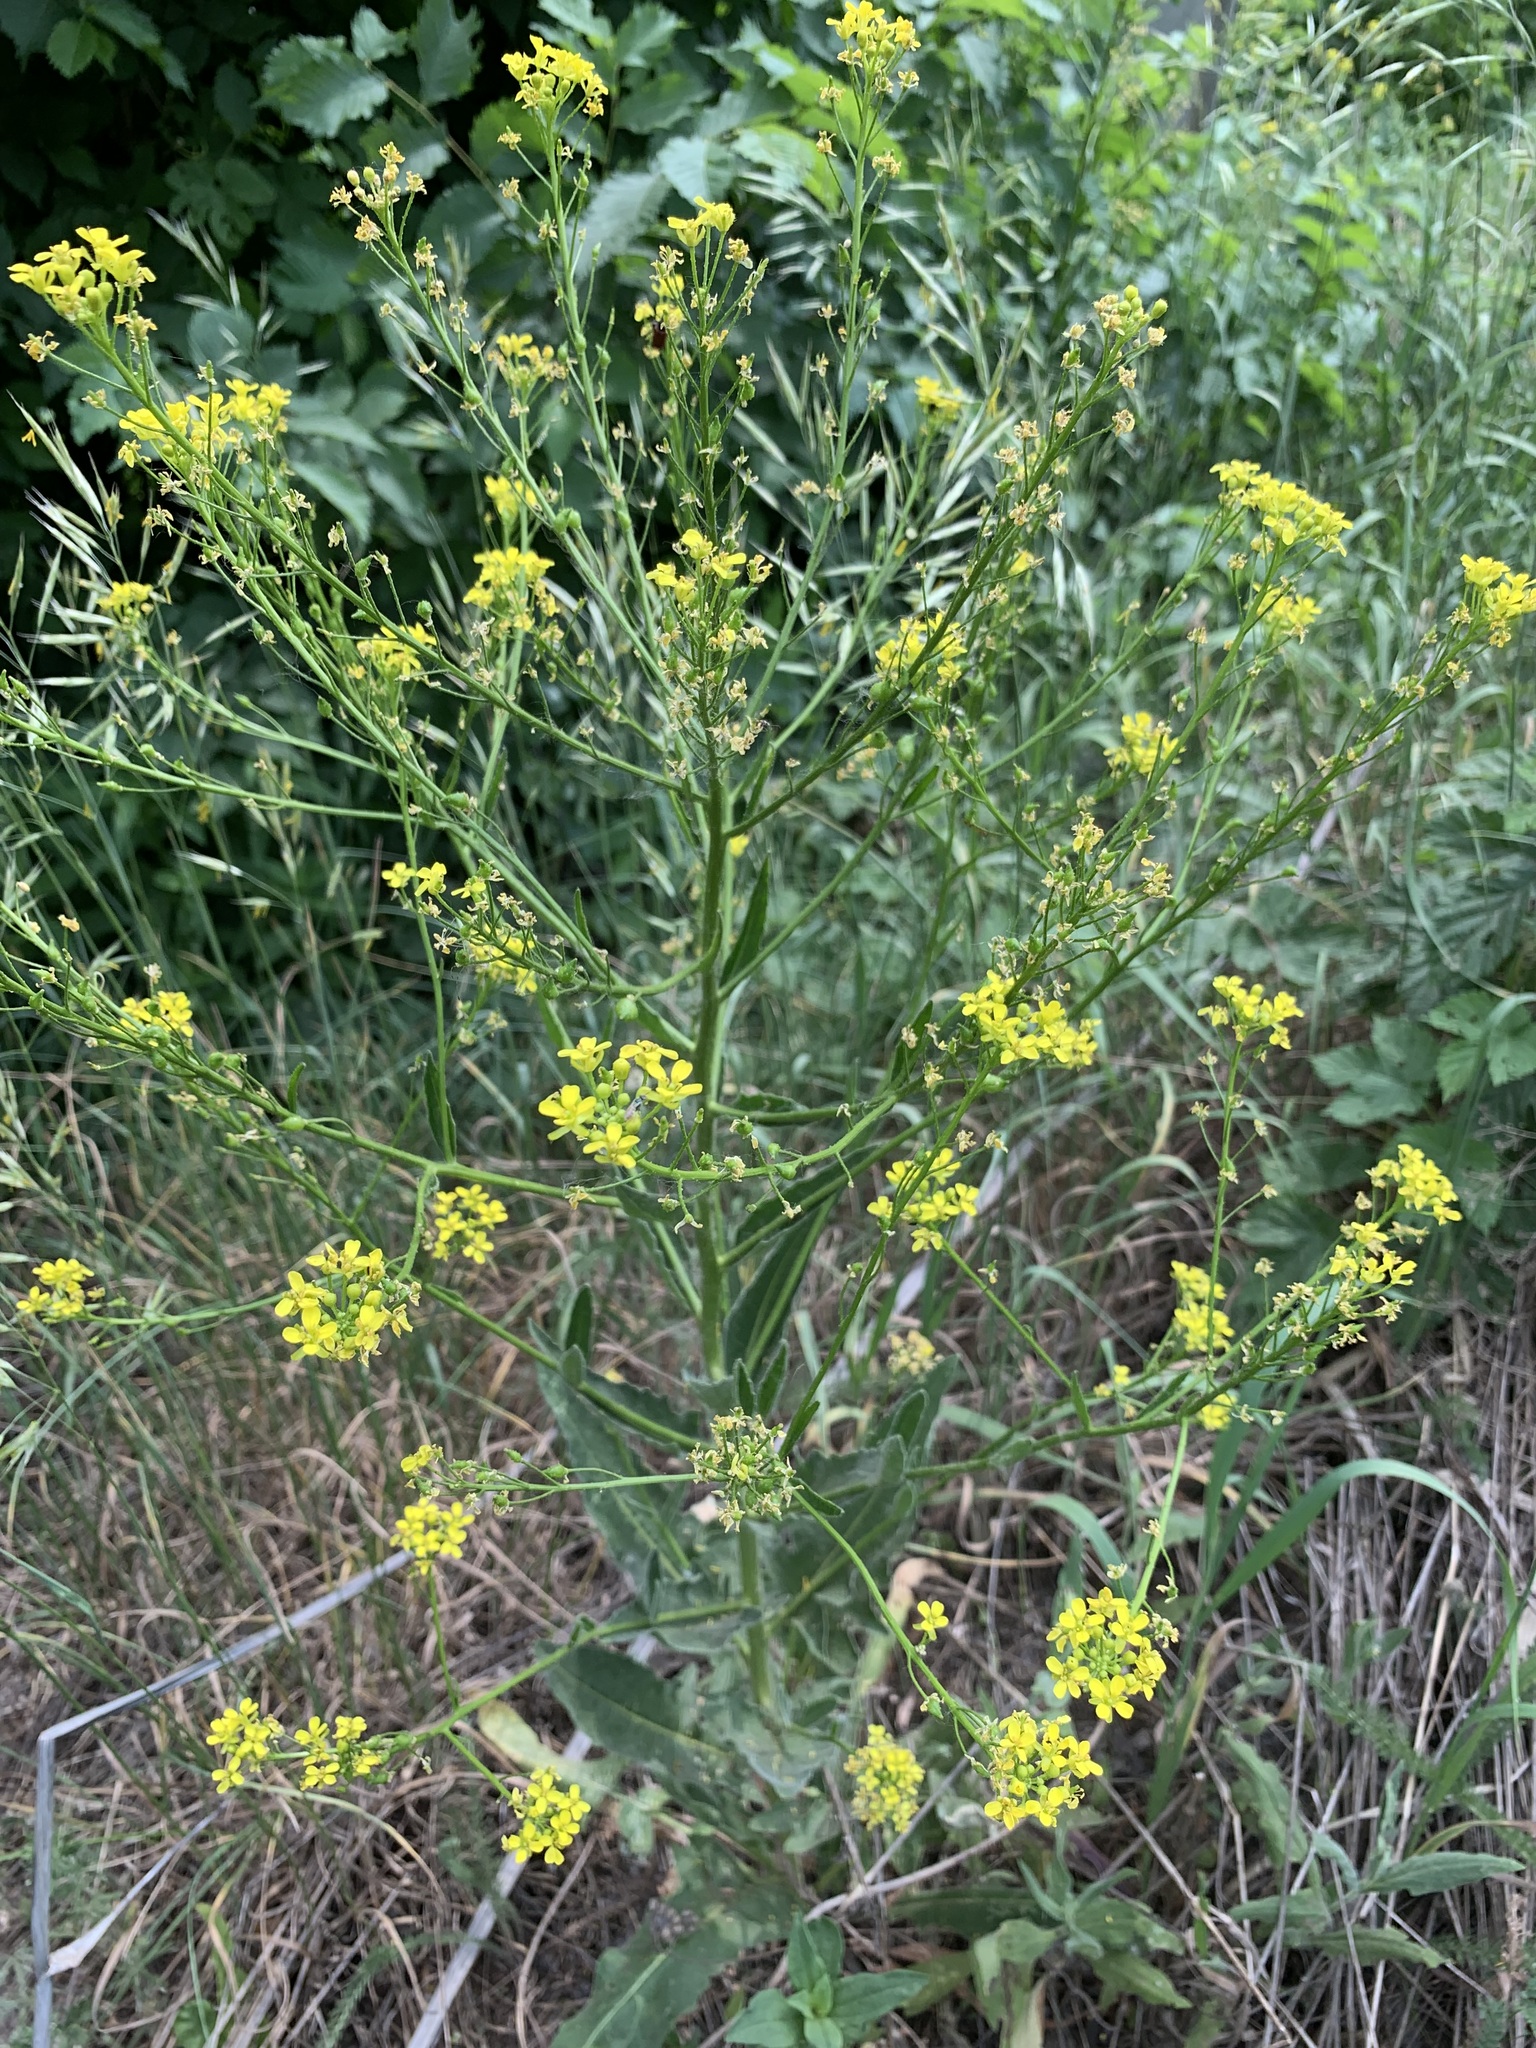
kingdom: Plantae
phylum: Tracheophyta
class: Magnoliopsida
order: Brassicales
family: Brassicaceae
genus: Bunias
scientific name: Bunias orientalis
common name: Warty-cabbage
